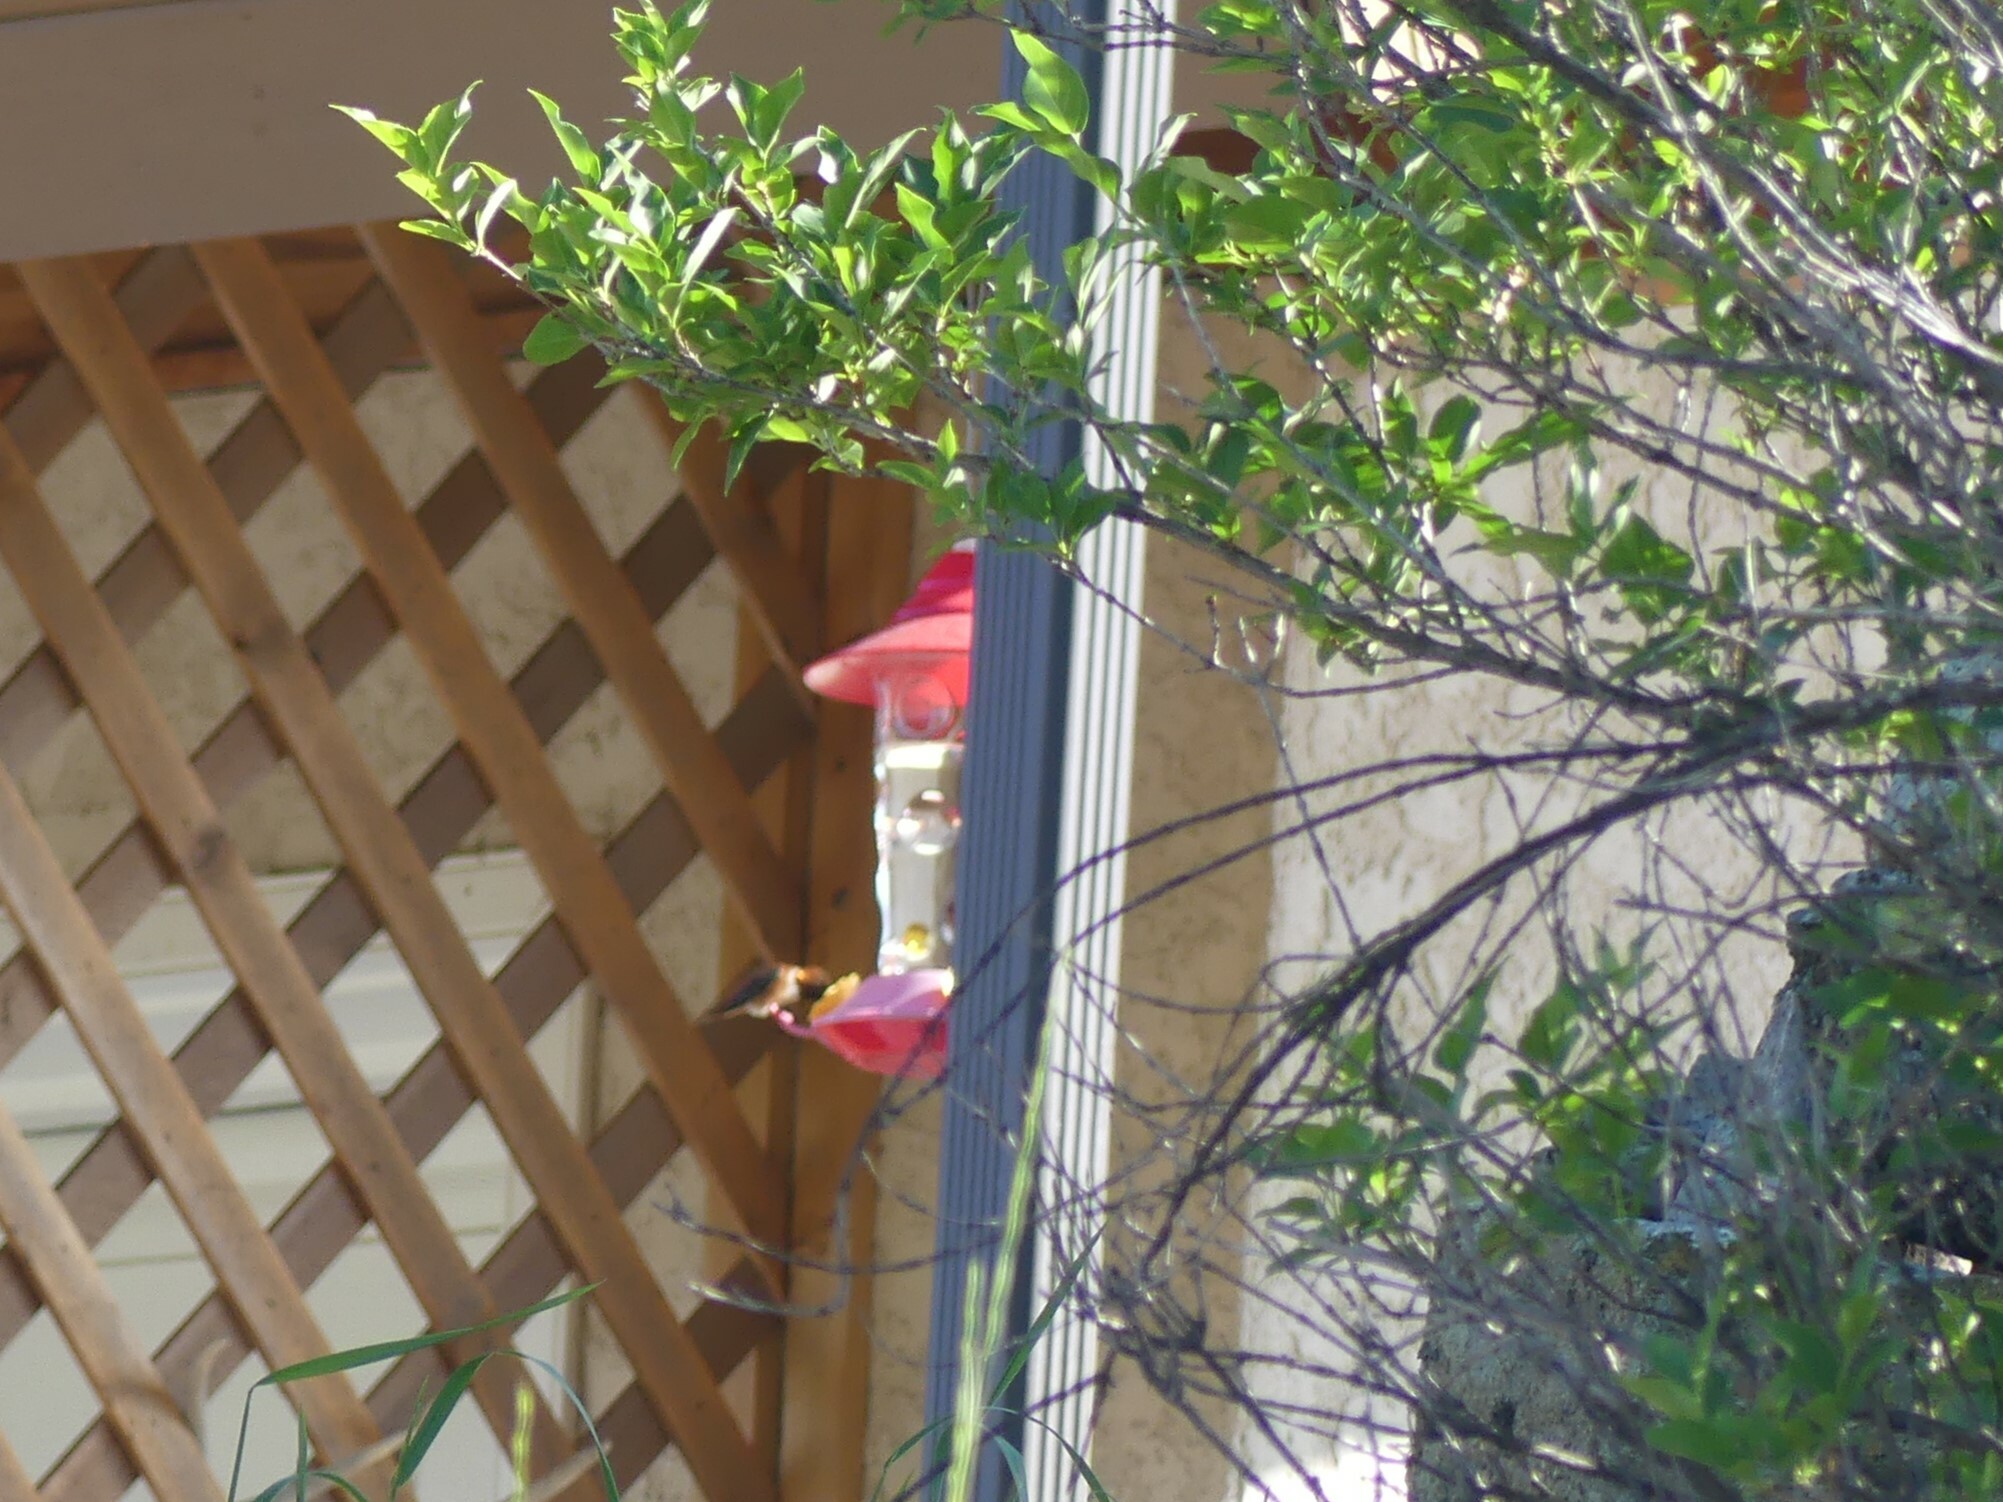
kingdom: Animalia
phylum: Chordata
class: Aves
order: Apodiformes
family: Trochilidae
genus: Selasphorus
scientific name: Selasphorus rufus
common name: Rufous hummingbird
